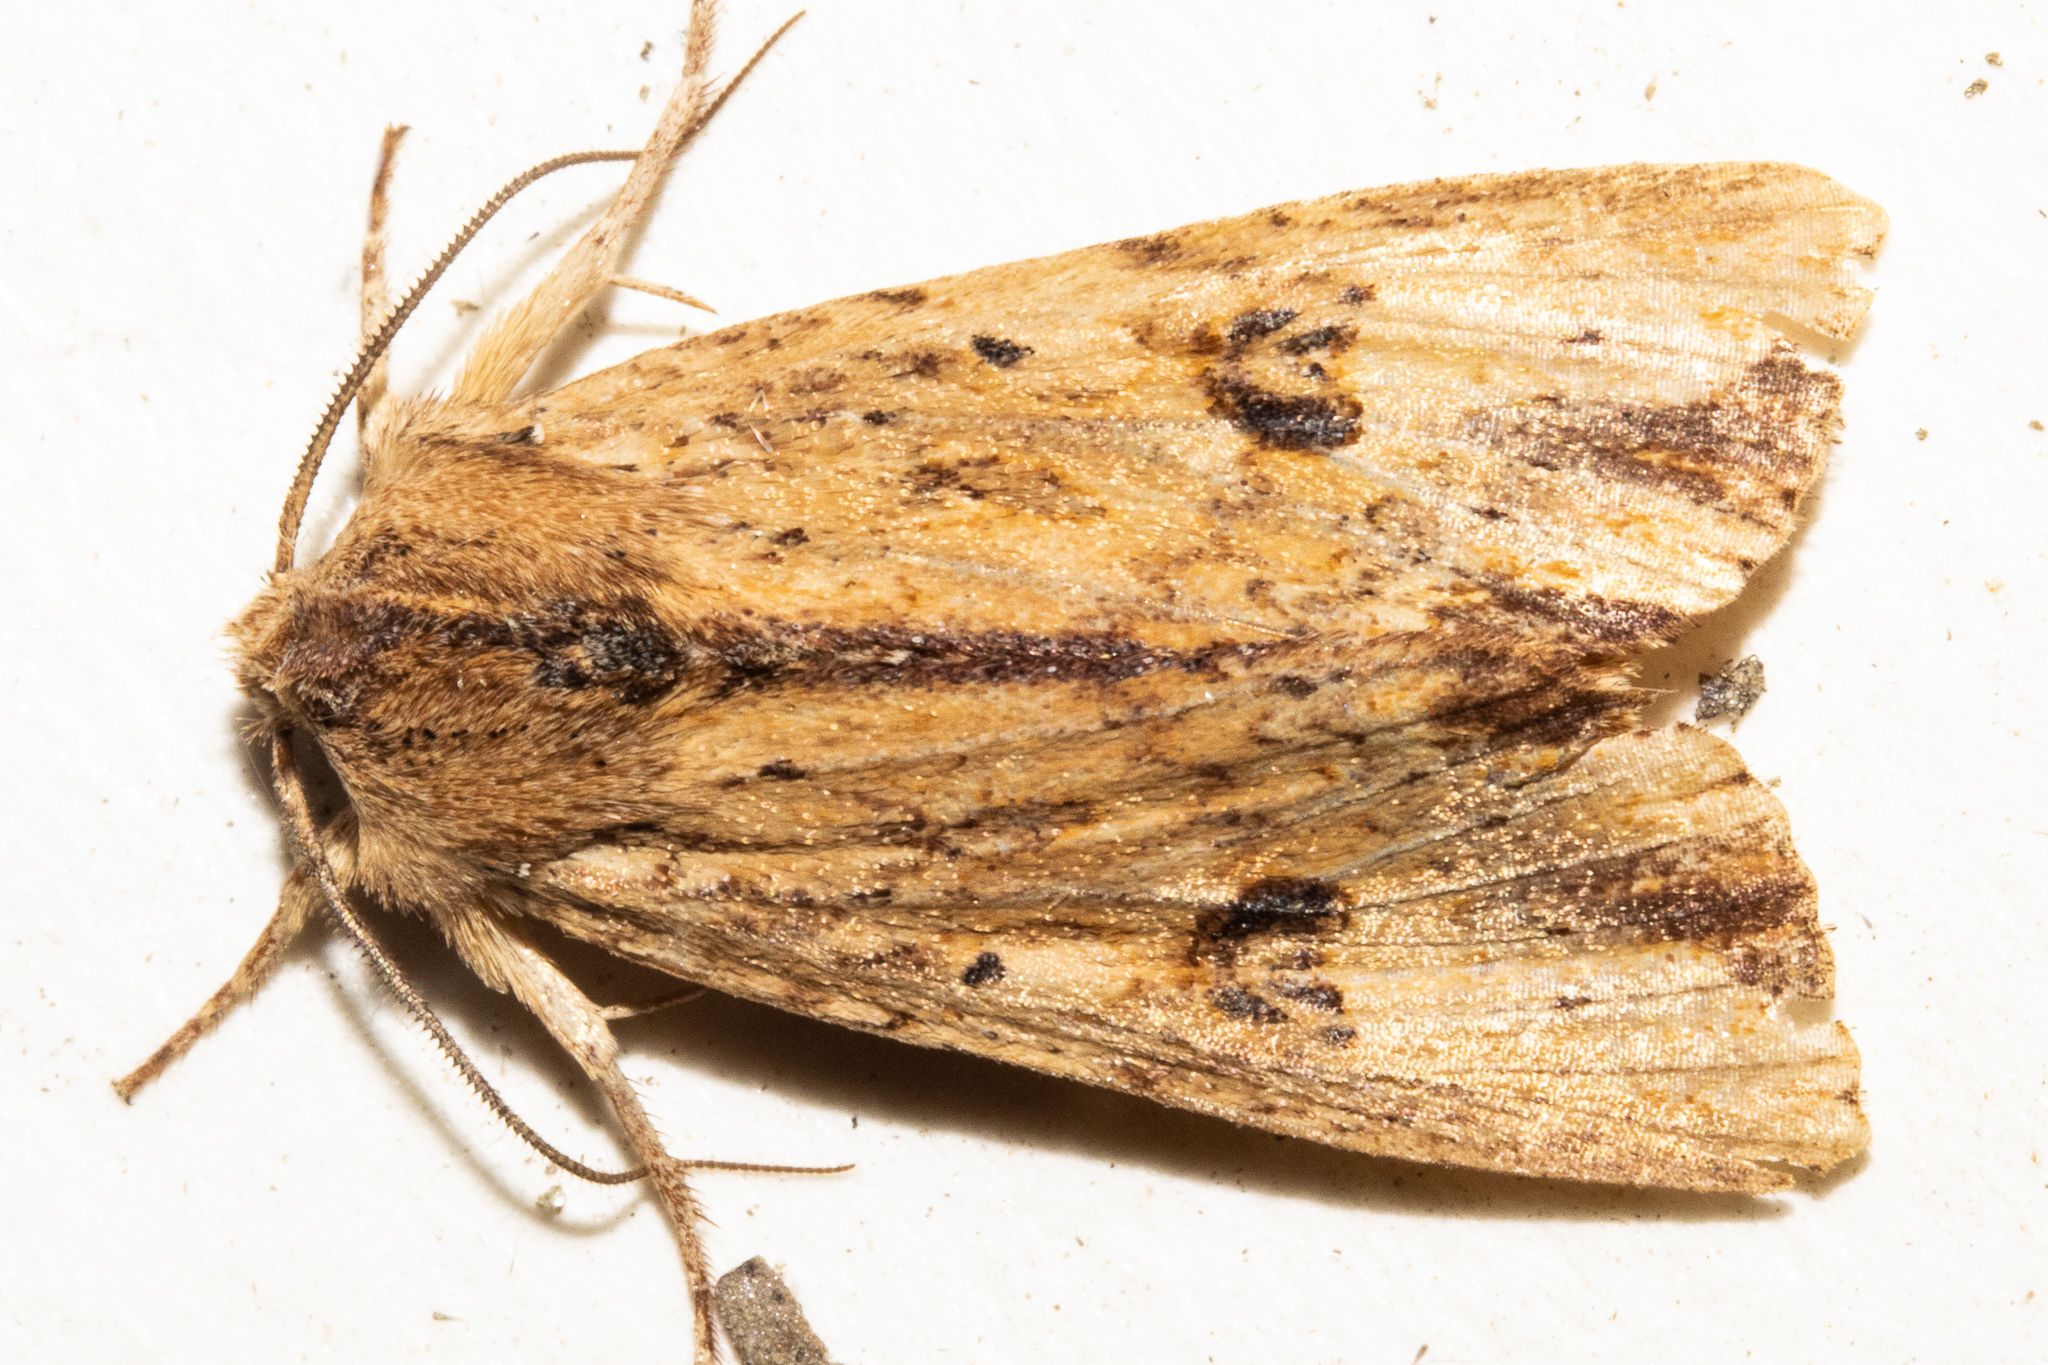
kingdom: Animalia
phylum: Arthropoda
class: Insecta
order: Lepidoptera
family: Noctuidae
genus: Ichneutica
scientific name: Ichneutica
